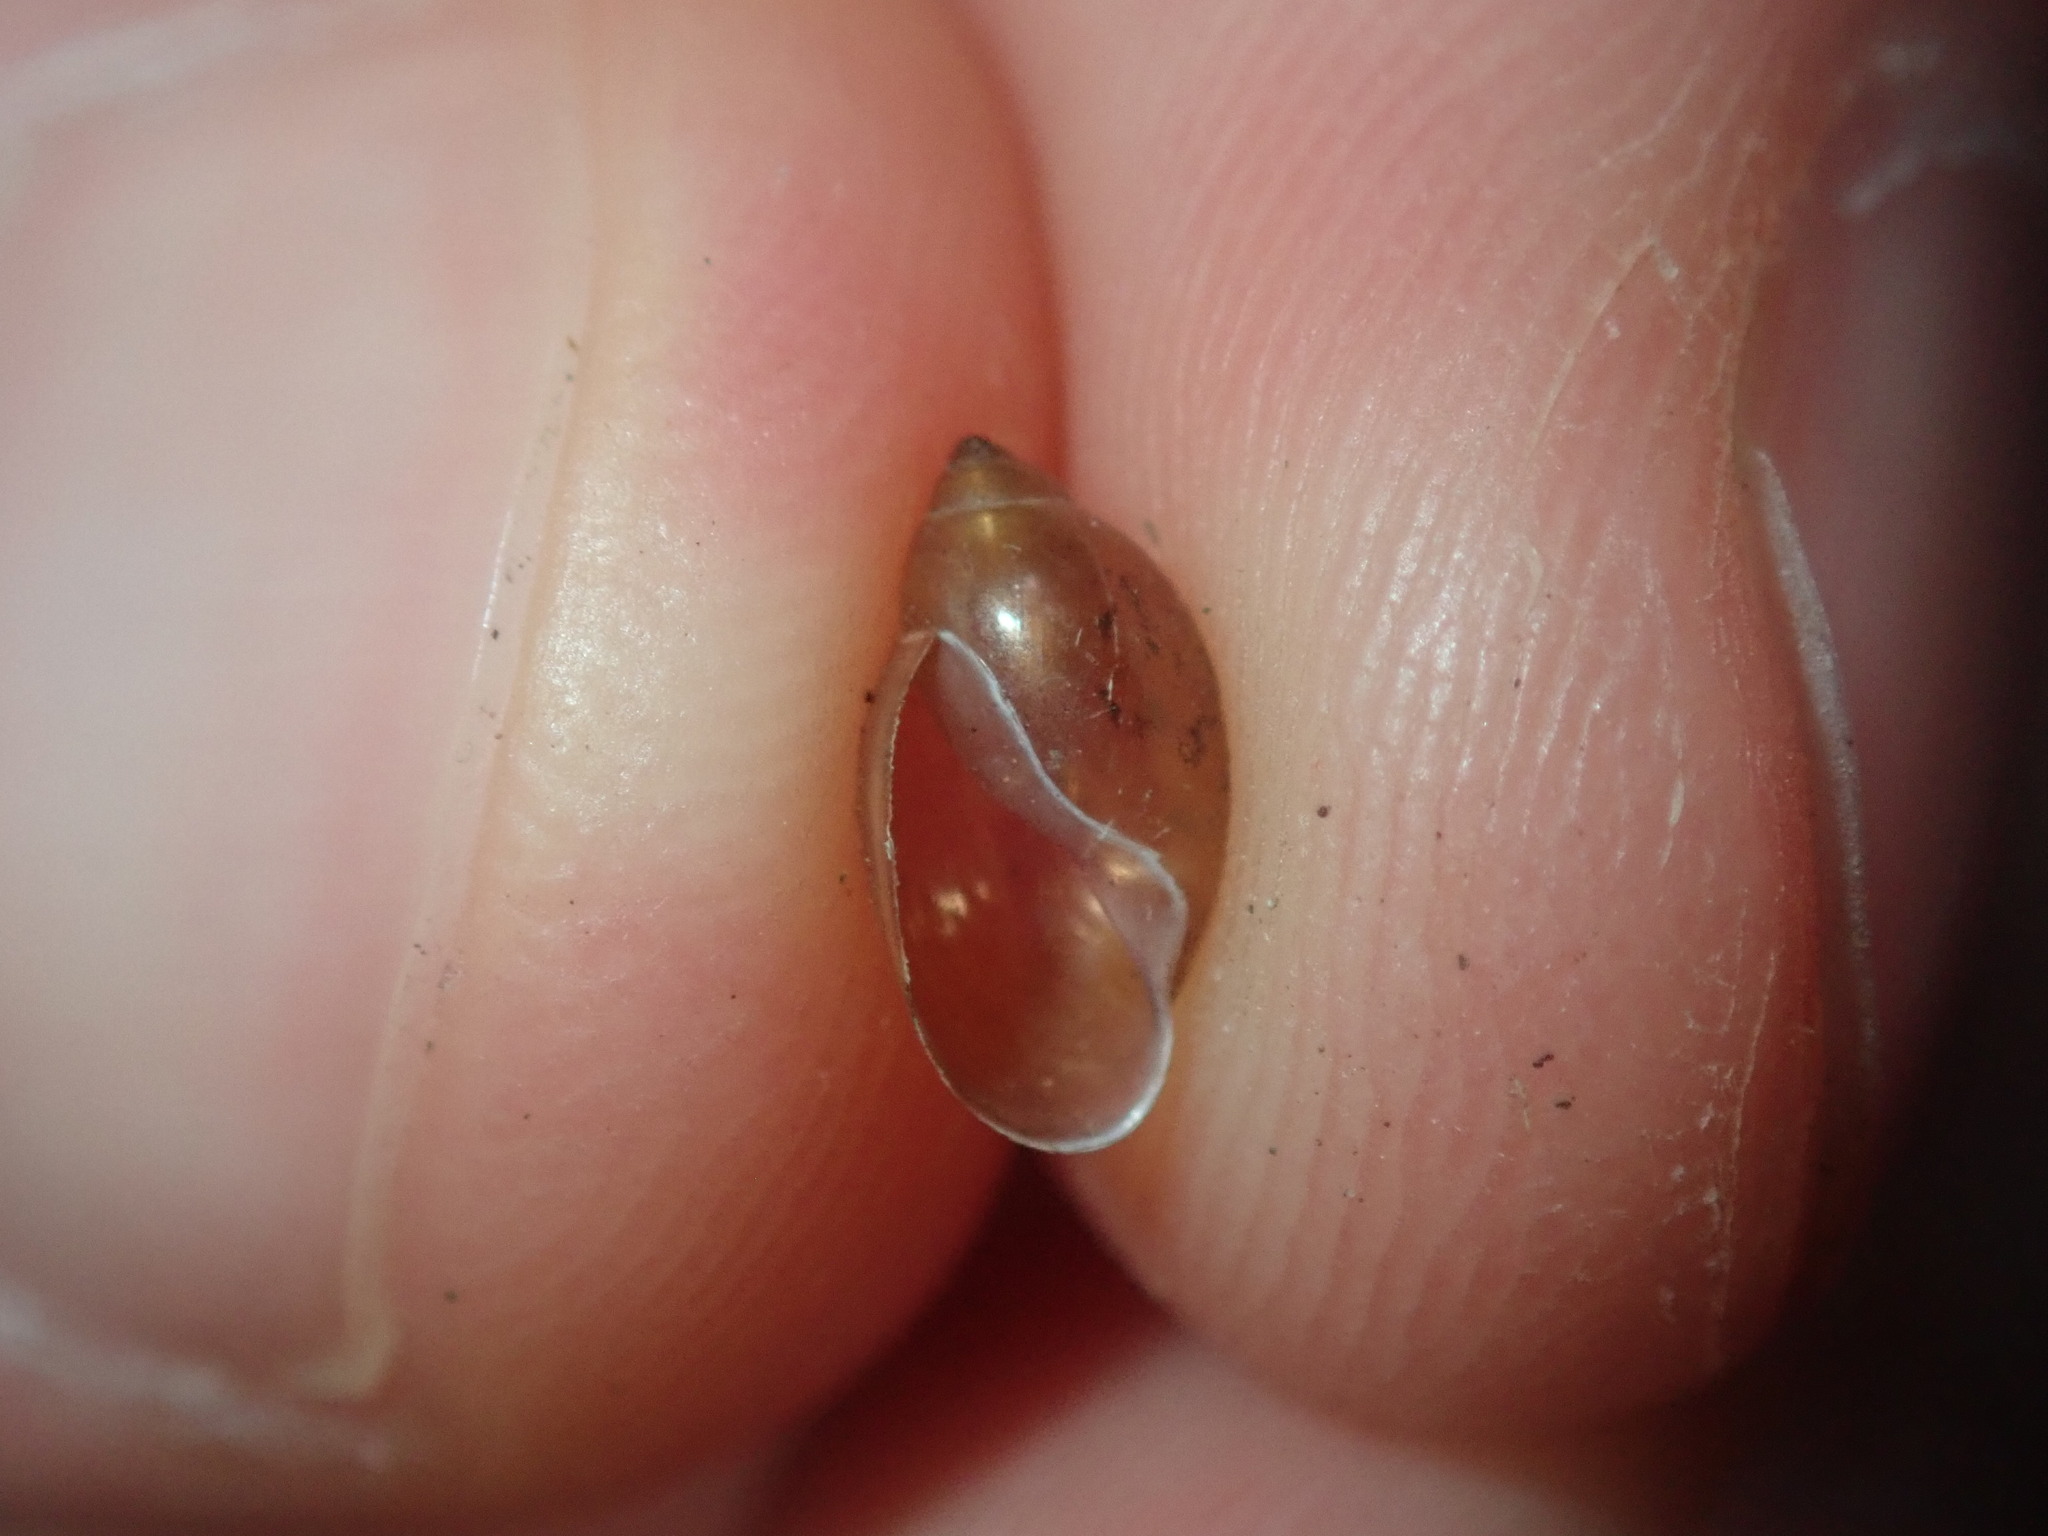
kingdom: Animalia
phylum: Mollusca
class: Gastropoda
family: Physidae
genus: Physella
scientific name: Physella acuta
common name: European physa
